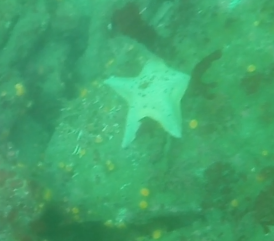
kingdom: Animalia
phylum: Echinodermata
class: Asteroidea
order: Valvatida
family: Asterinidae
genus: Patiria
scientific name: Patiria miniata
